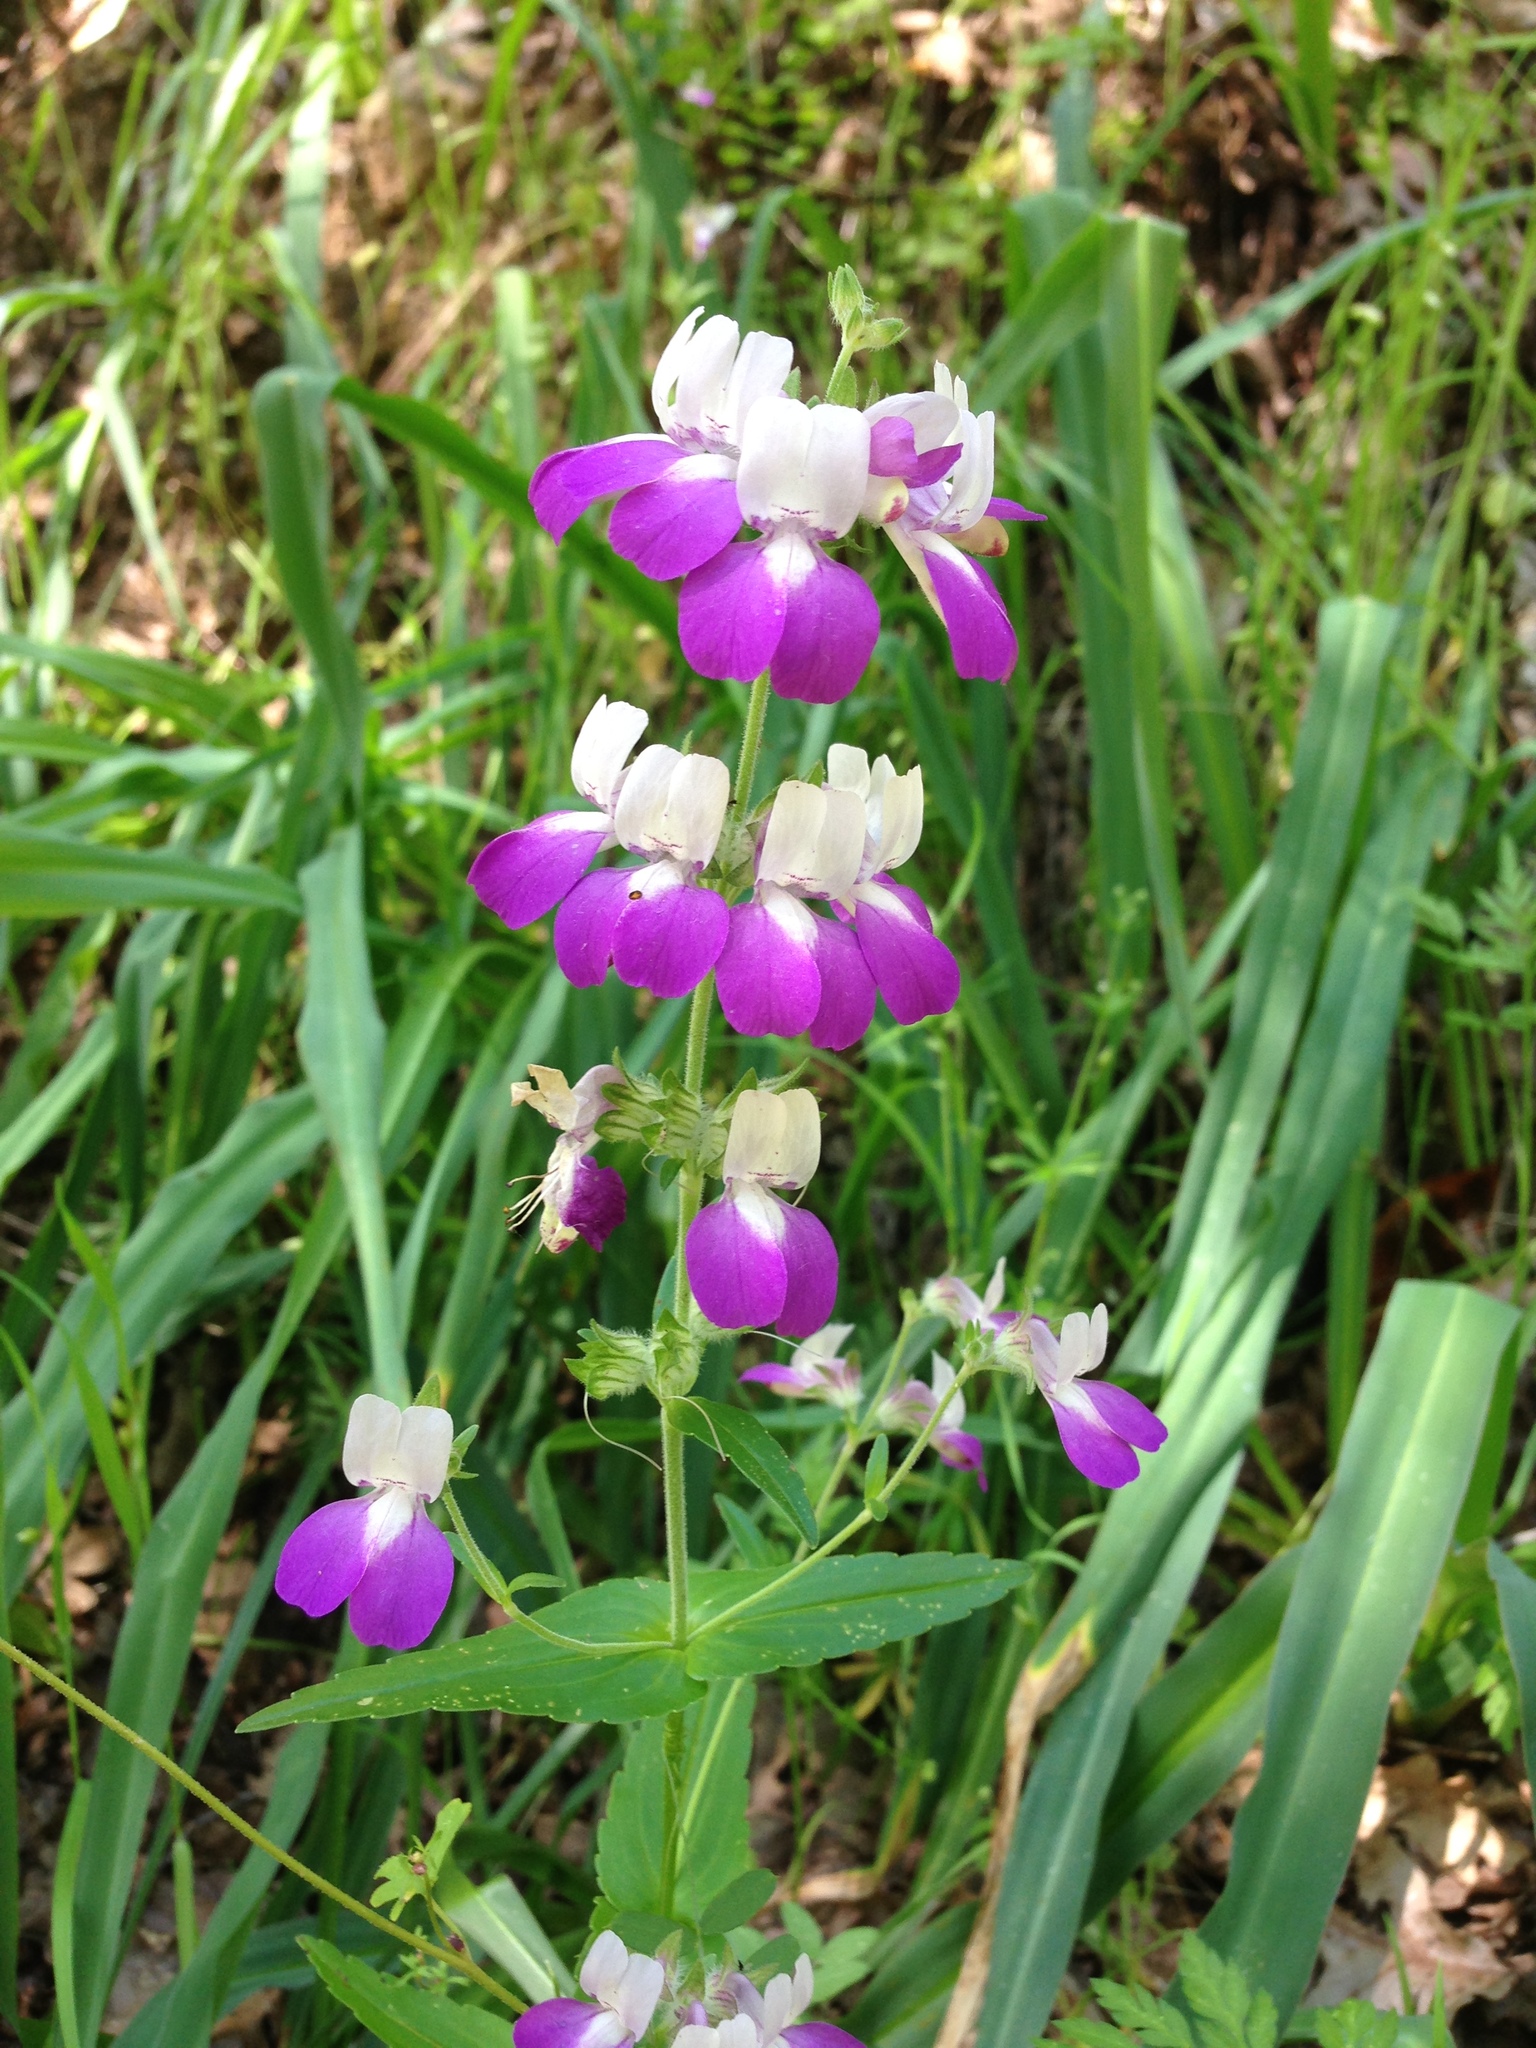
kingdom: Plantae
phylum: Tracheophyta
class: Magnoliopsida
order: Lamiales
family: Plantaginaceae
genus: Collinsia
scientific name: Collinsia heterophylla
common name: Chinese-houses
